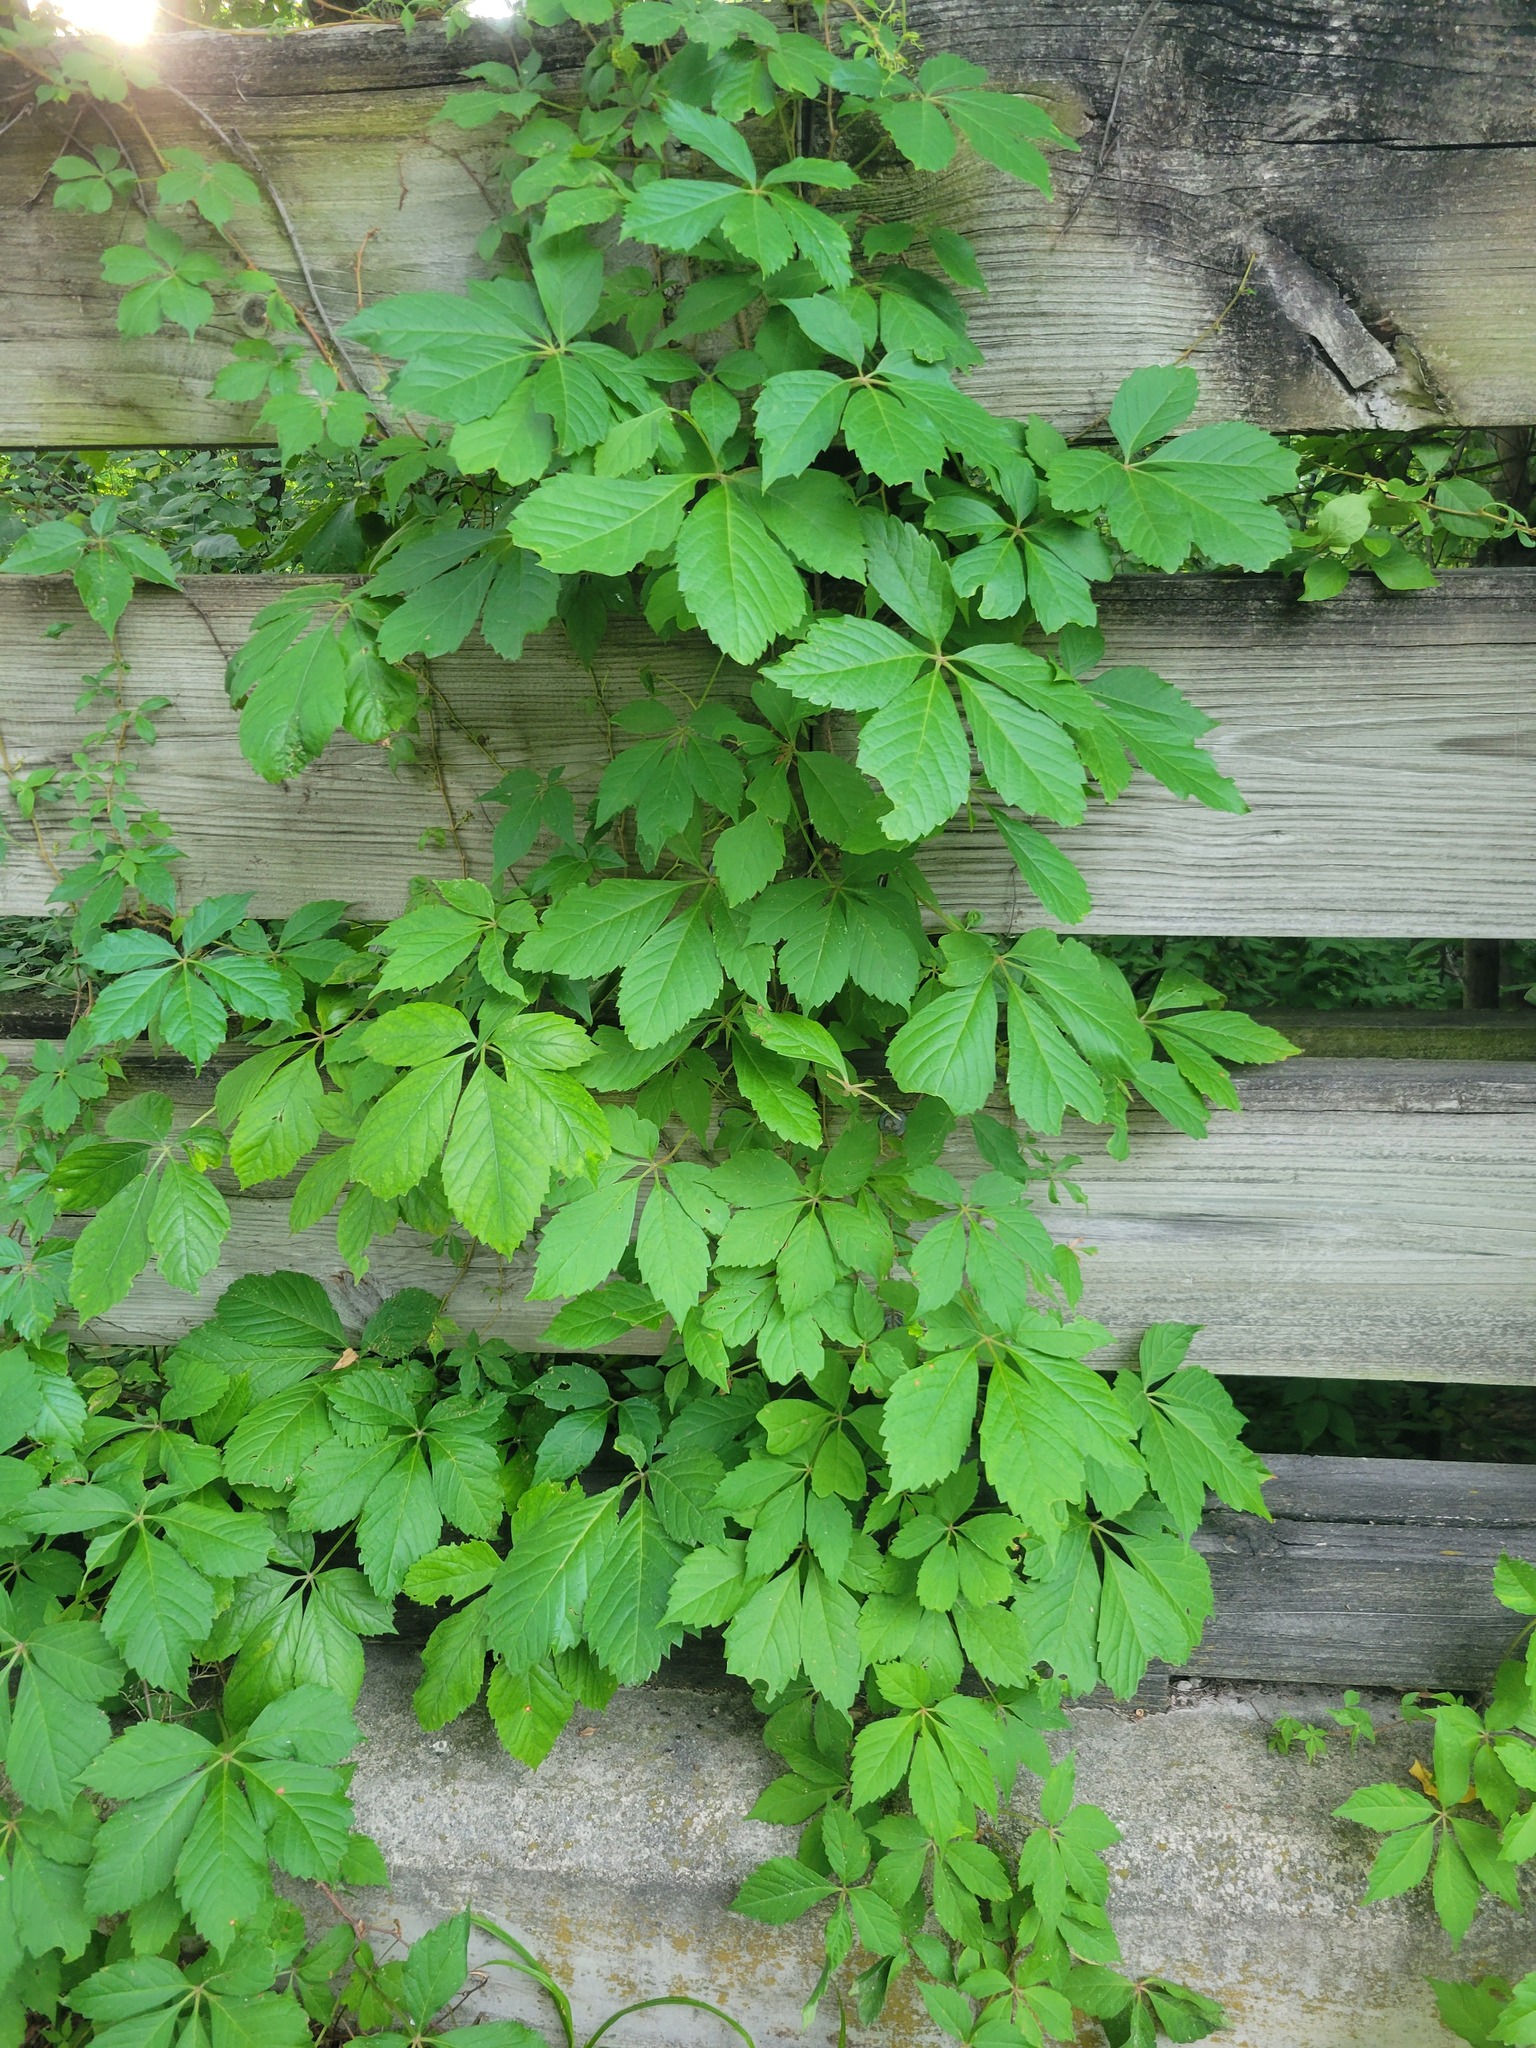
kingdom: Plantae
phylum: Tracheophyta
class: Magnoliopsida
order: Vitales
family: Vitaceae
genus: Parthenocissus
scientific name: Parthenocissus quinquefolia
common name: Virginia-creeper
